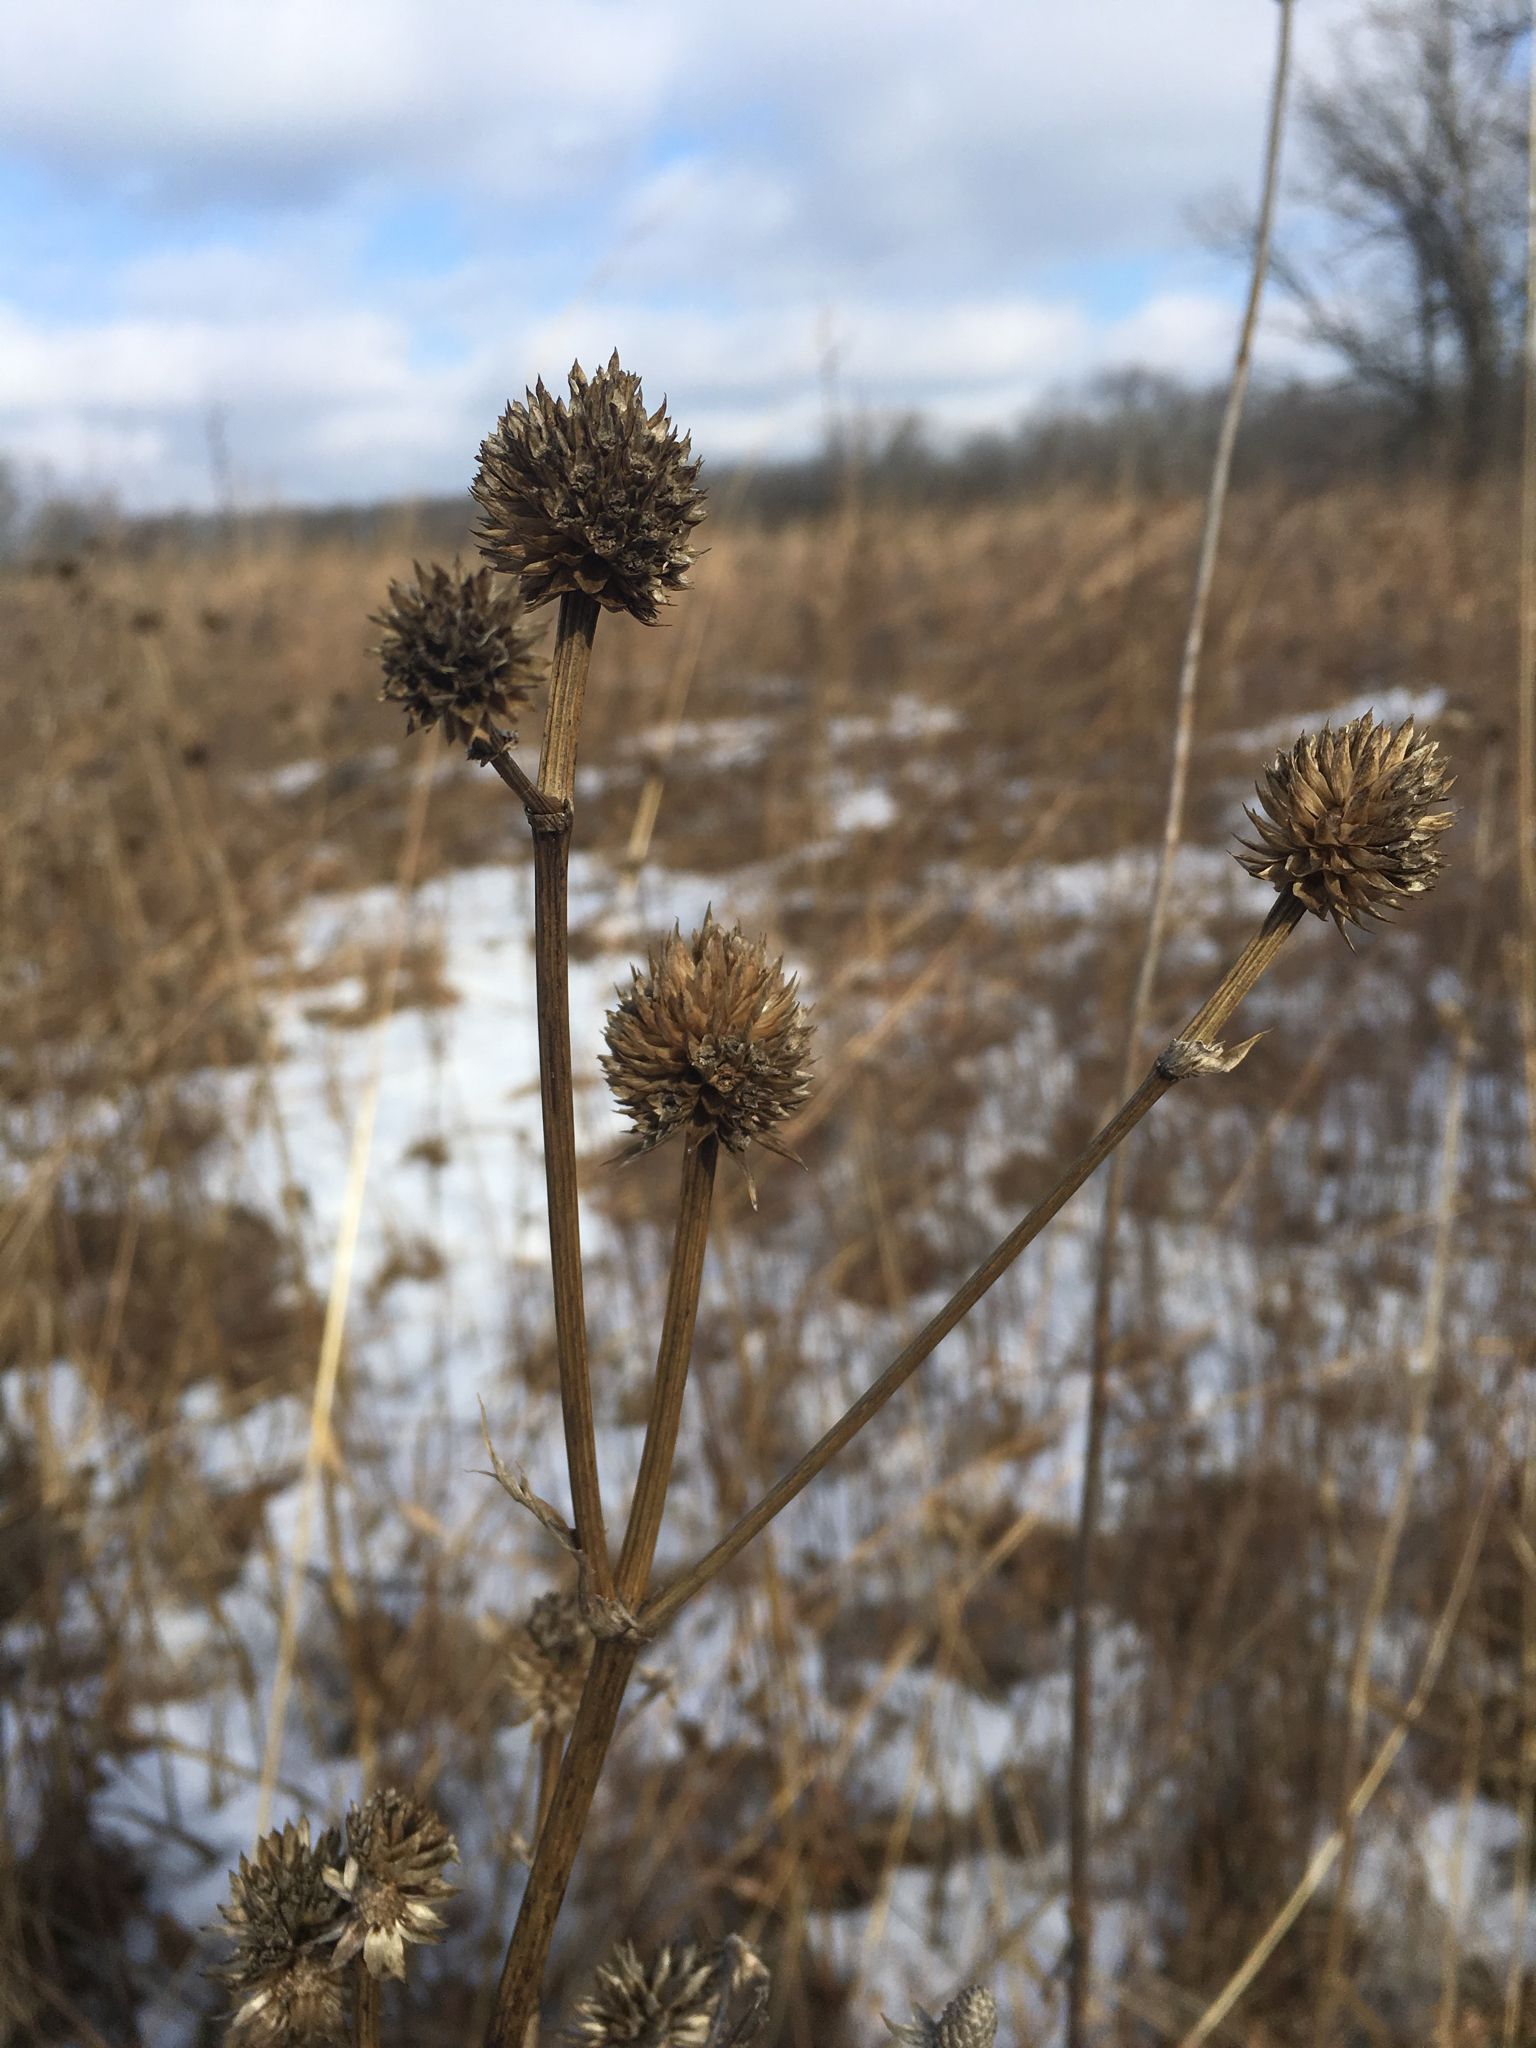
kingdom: Plantae
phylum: Tracheophyta
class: Magnoliopsida
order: Apiales
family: Apiaceae
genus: Eryngium
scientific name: Eryngium yuccifolium
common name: Button eryngo
